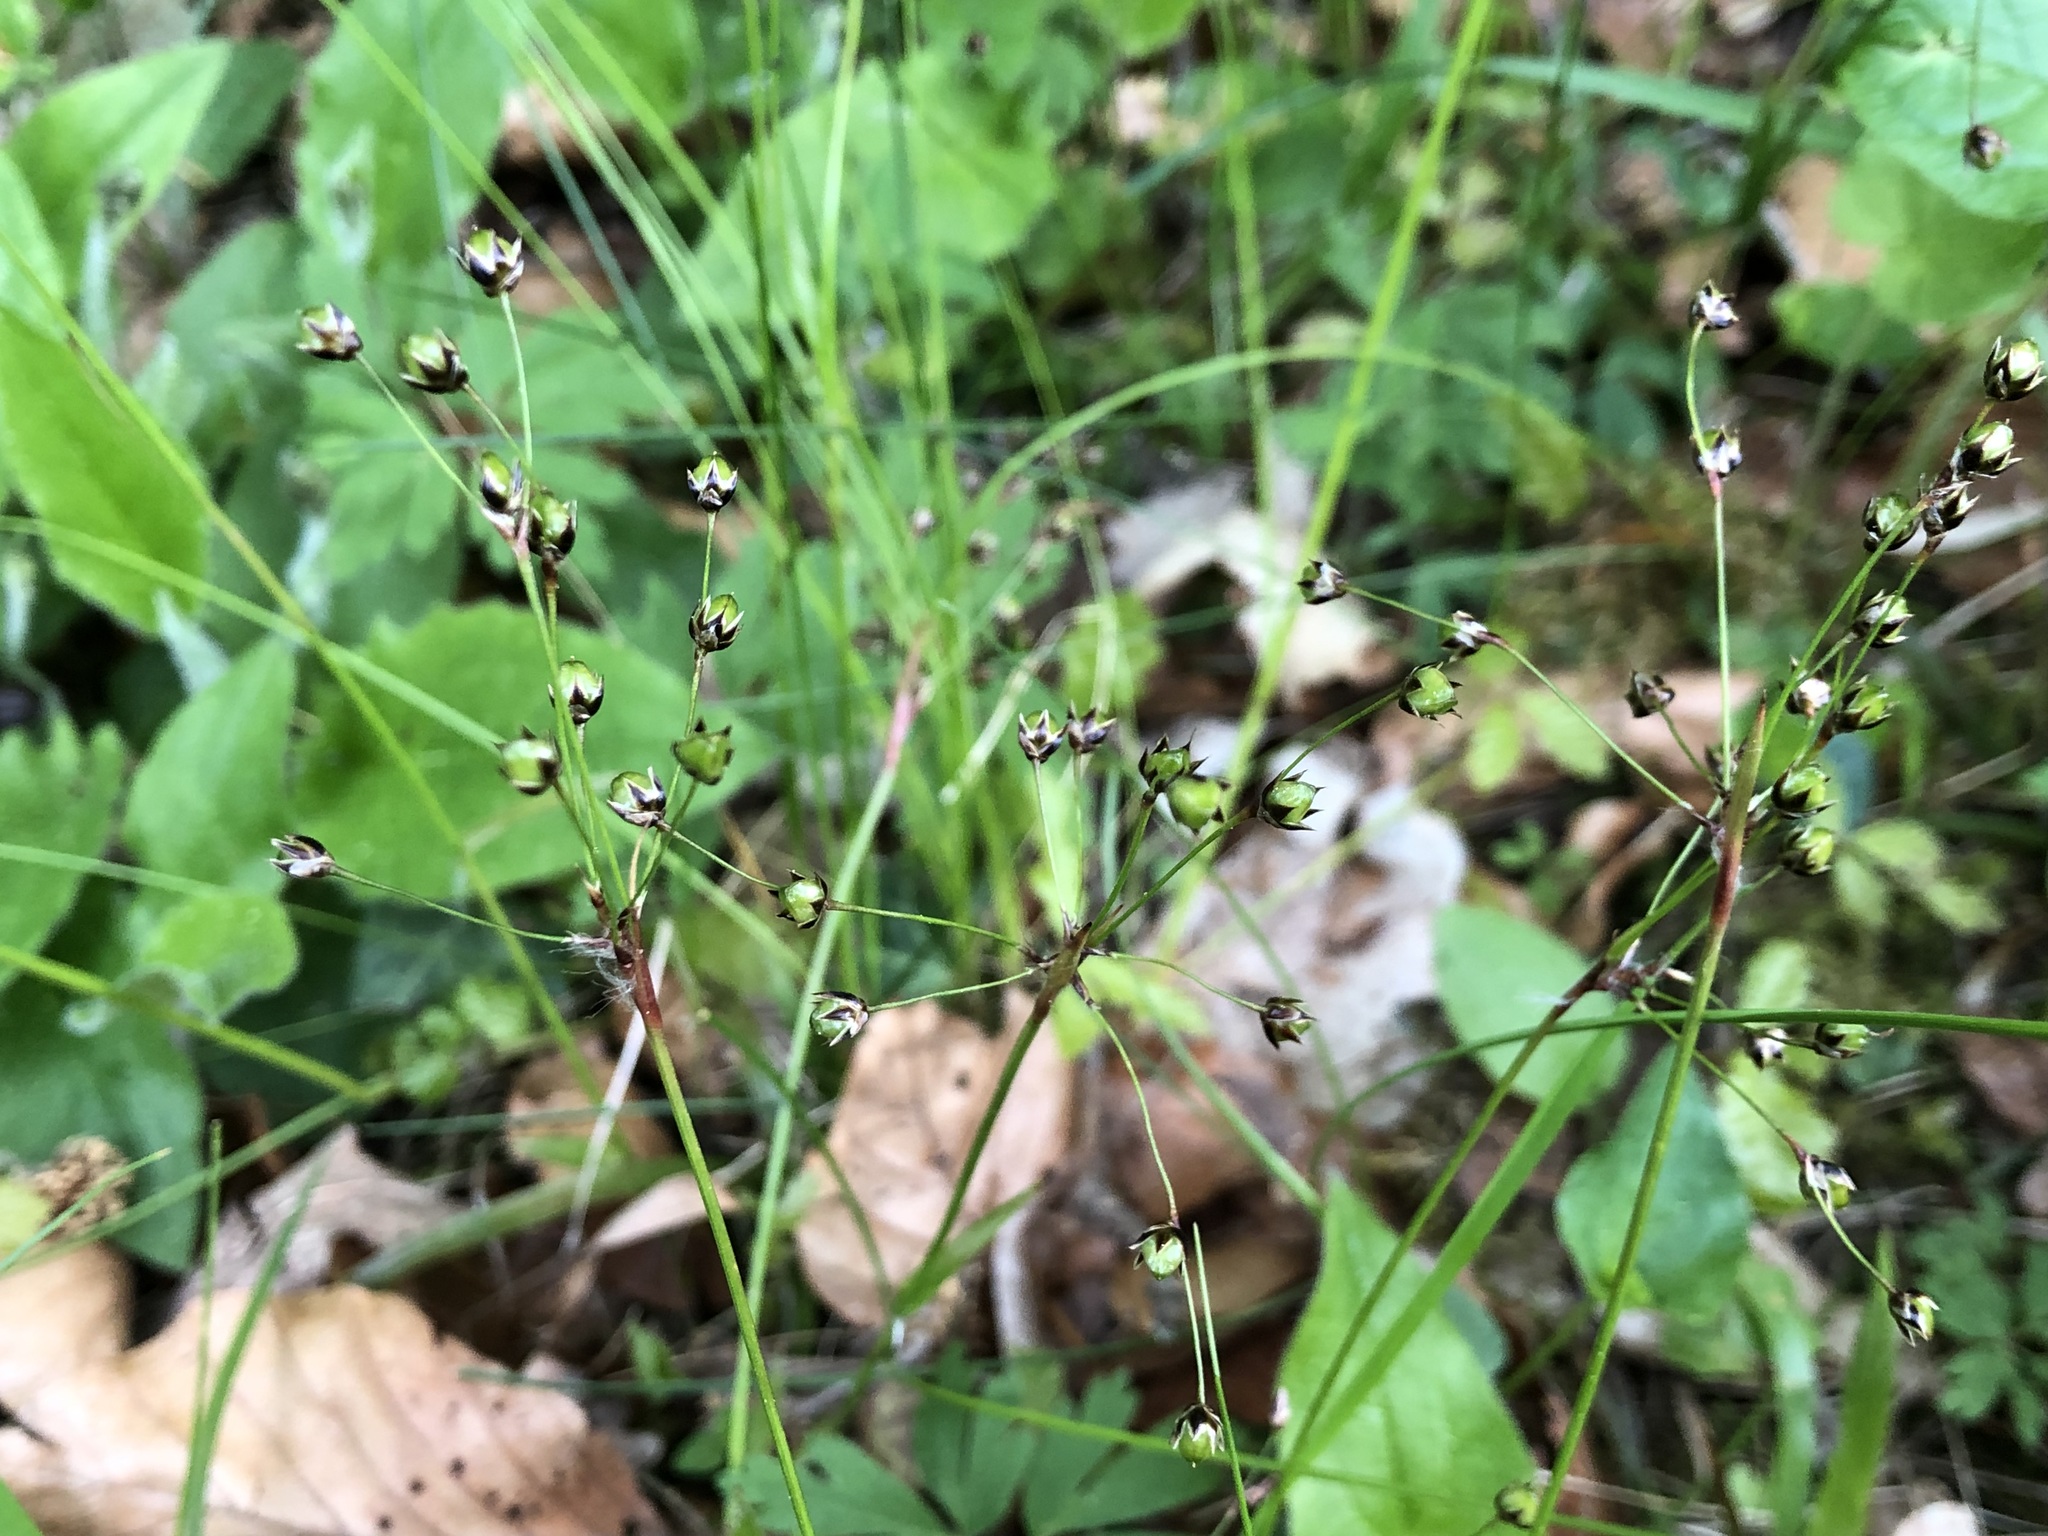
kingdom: Plantae
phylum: Tracheophyta
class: Liliopsida
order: Poales
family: Juncaceae
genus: Luzula
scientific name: Luzula pilosa
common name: Hairy wood-rush
